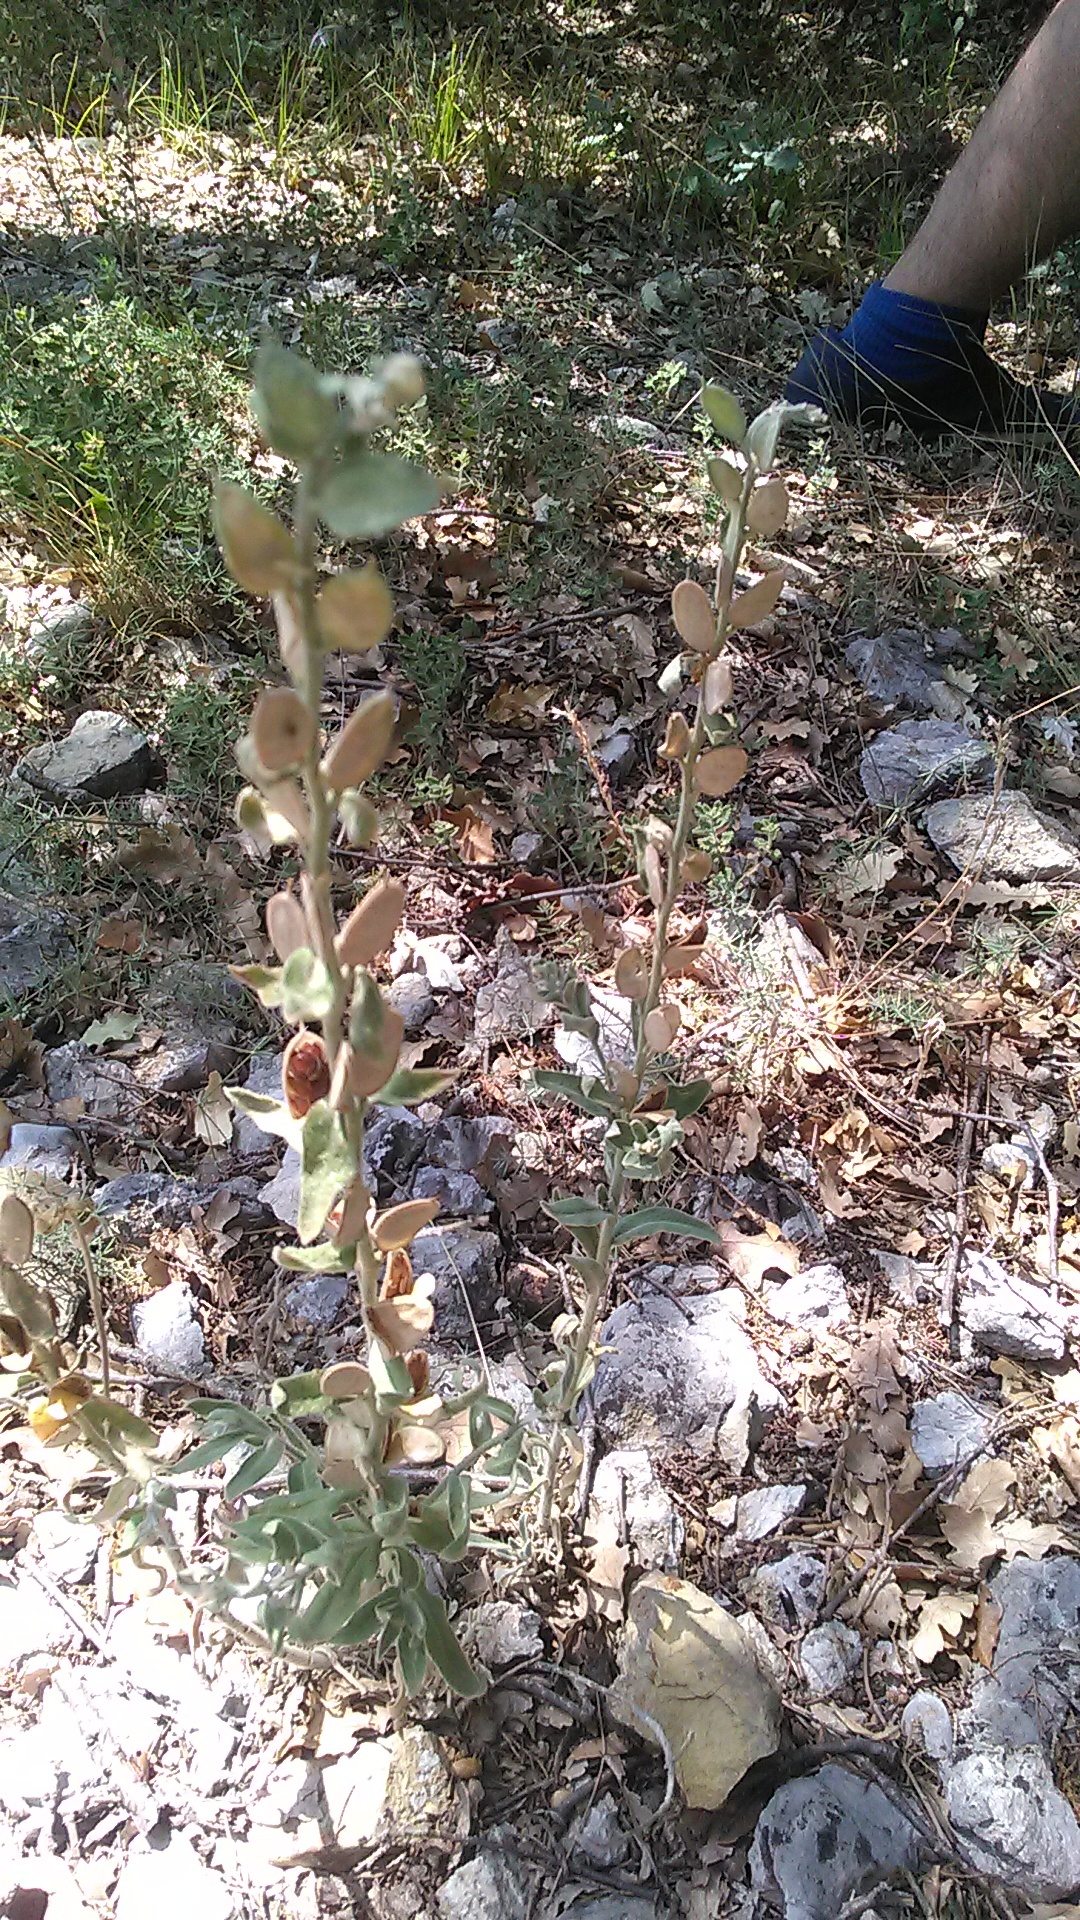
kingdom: Plantae
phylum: Tracheophyta
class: Magnoliopsida
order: Brassicales
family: Brassicaceae
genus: Fibigia
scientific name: Fibigia clypeata
